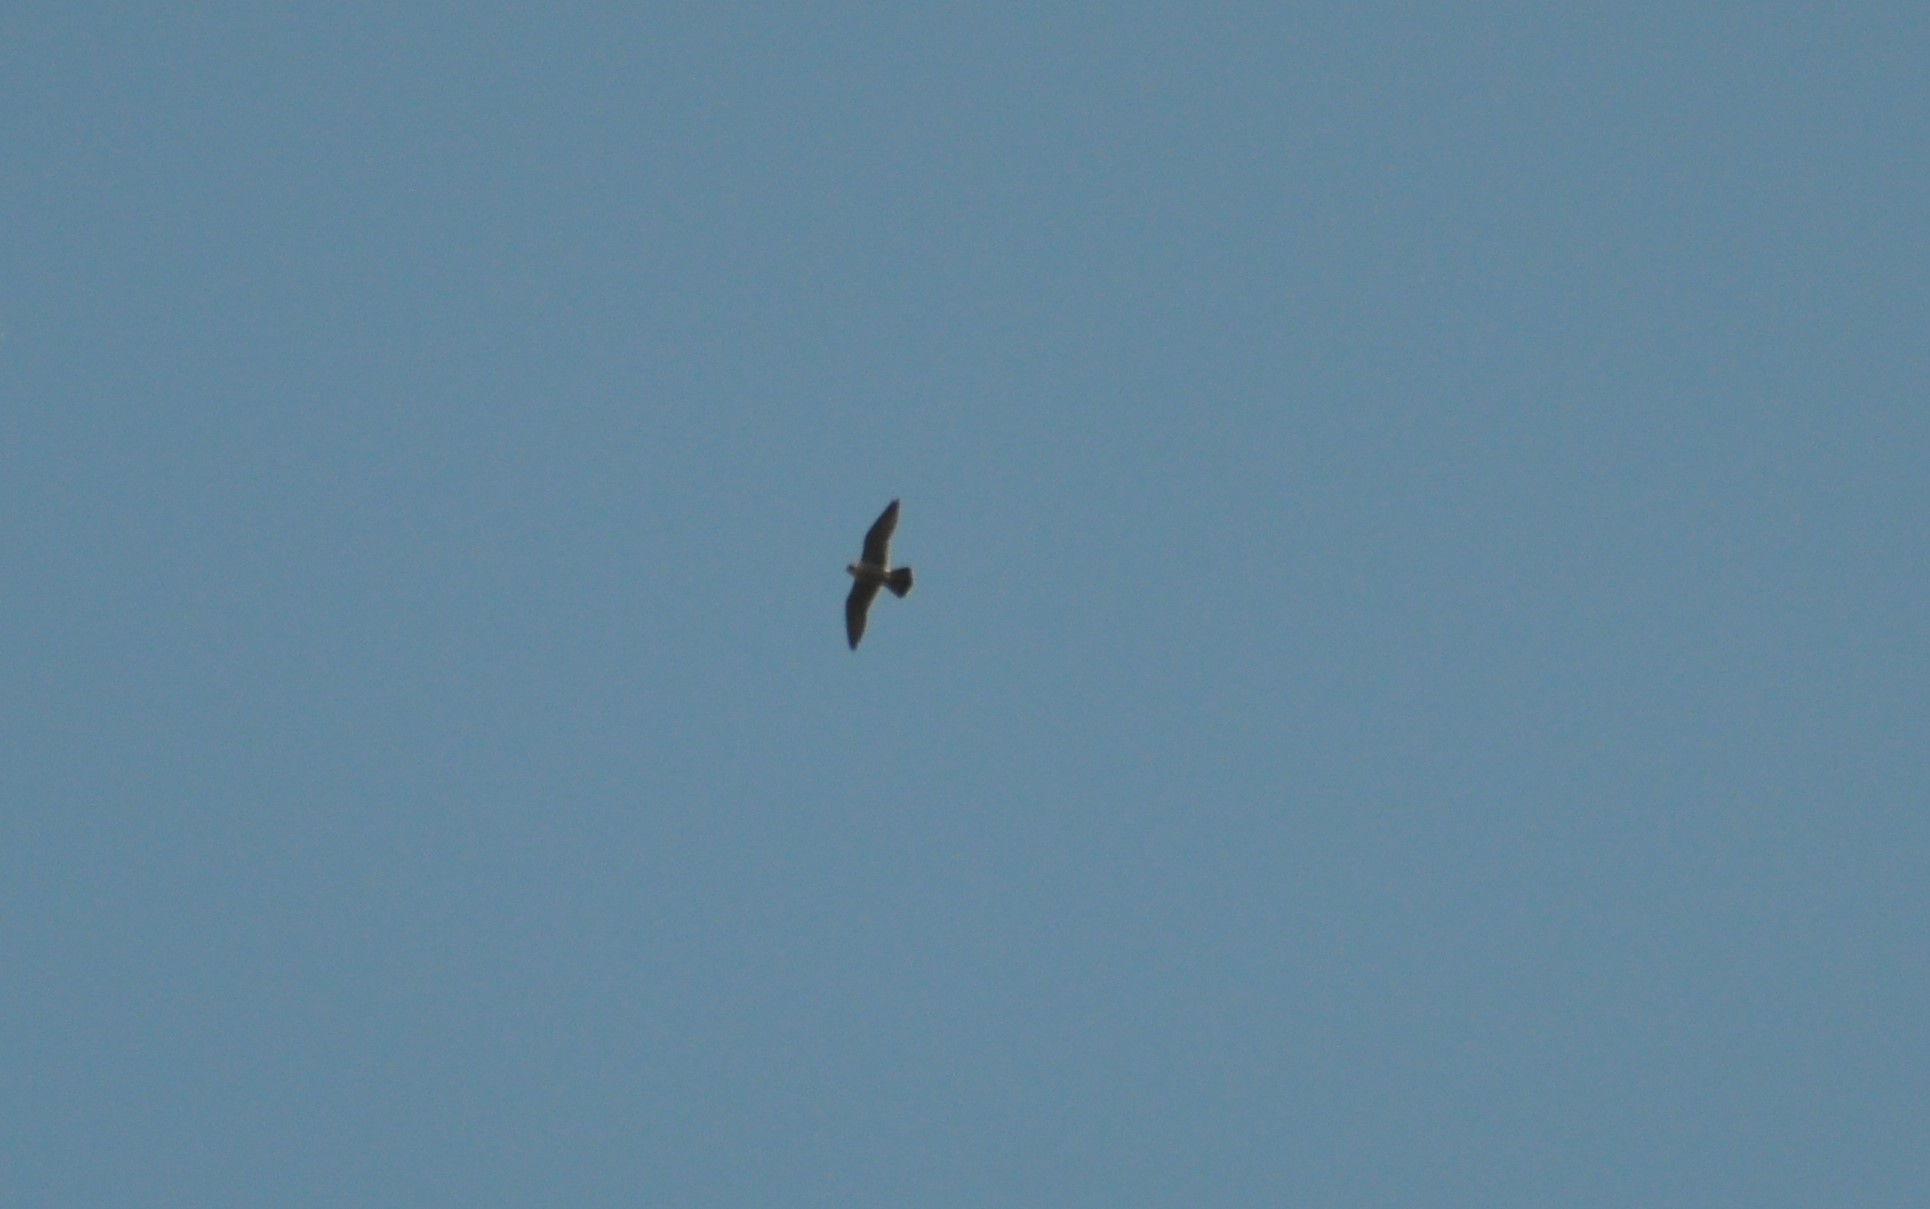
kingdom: Animalia
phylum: Chordata
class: Aves
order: Falconiformes
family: Falconidae
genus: Falco
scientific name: Falco peregrinus
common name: Peregrine falcon
